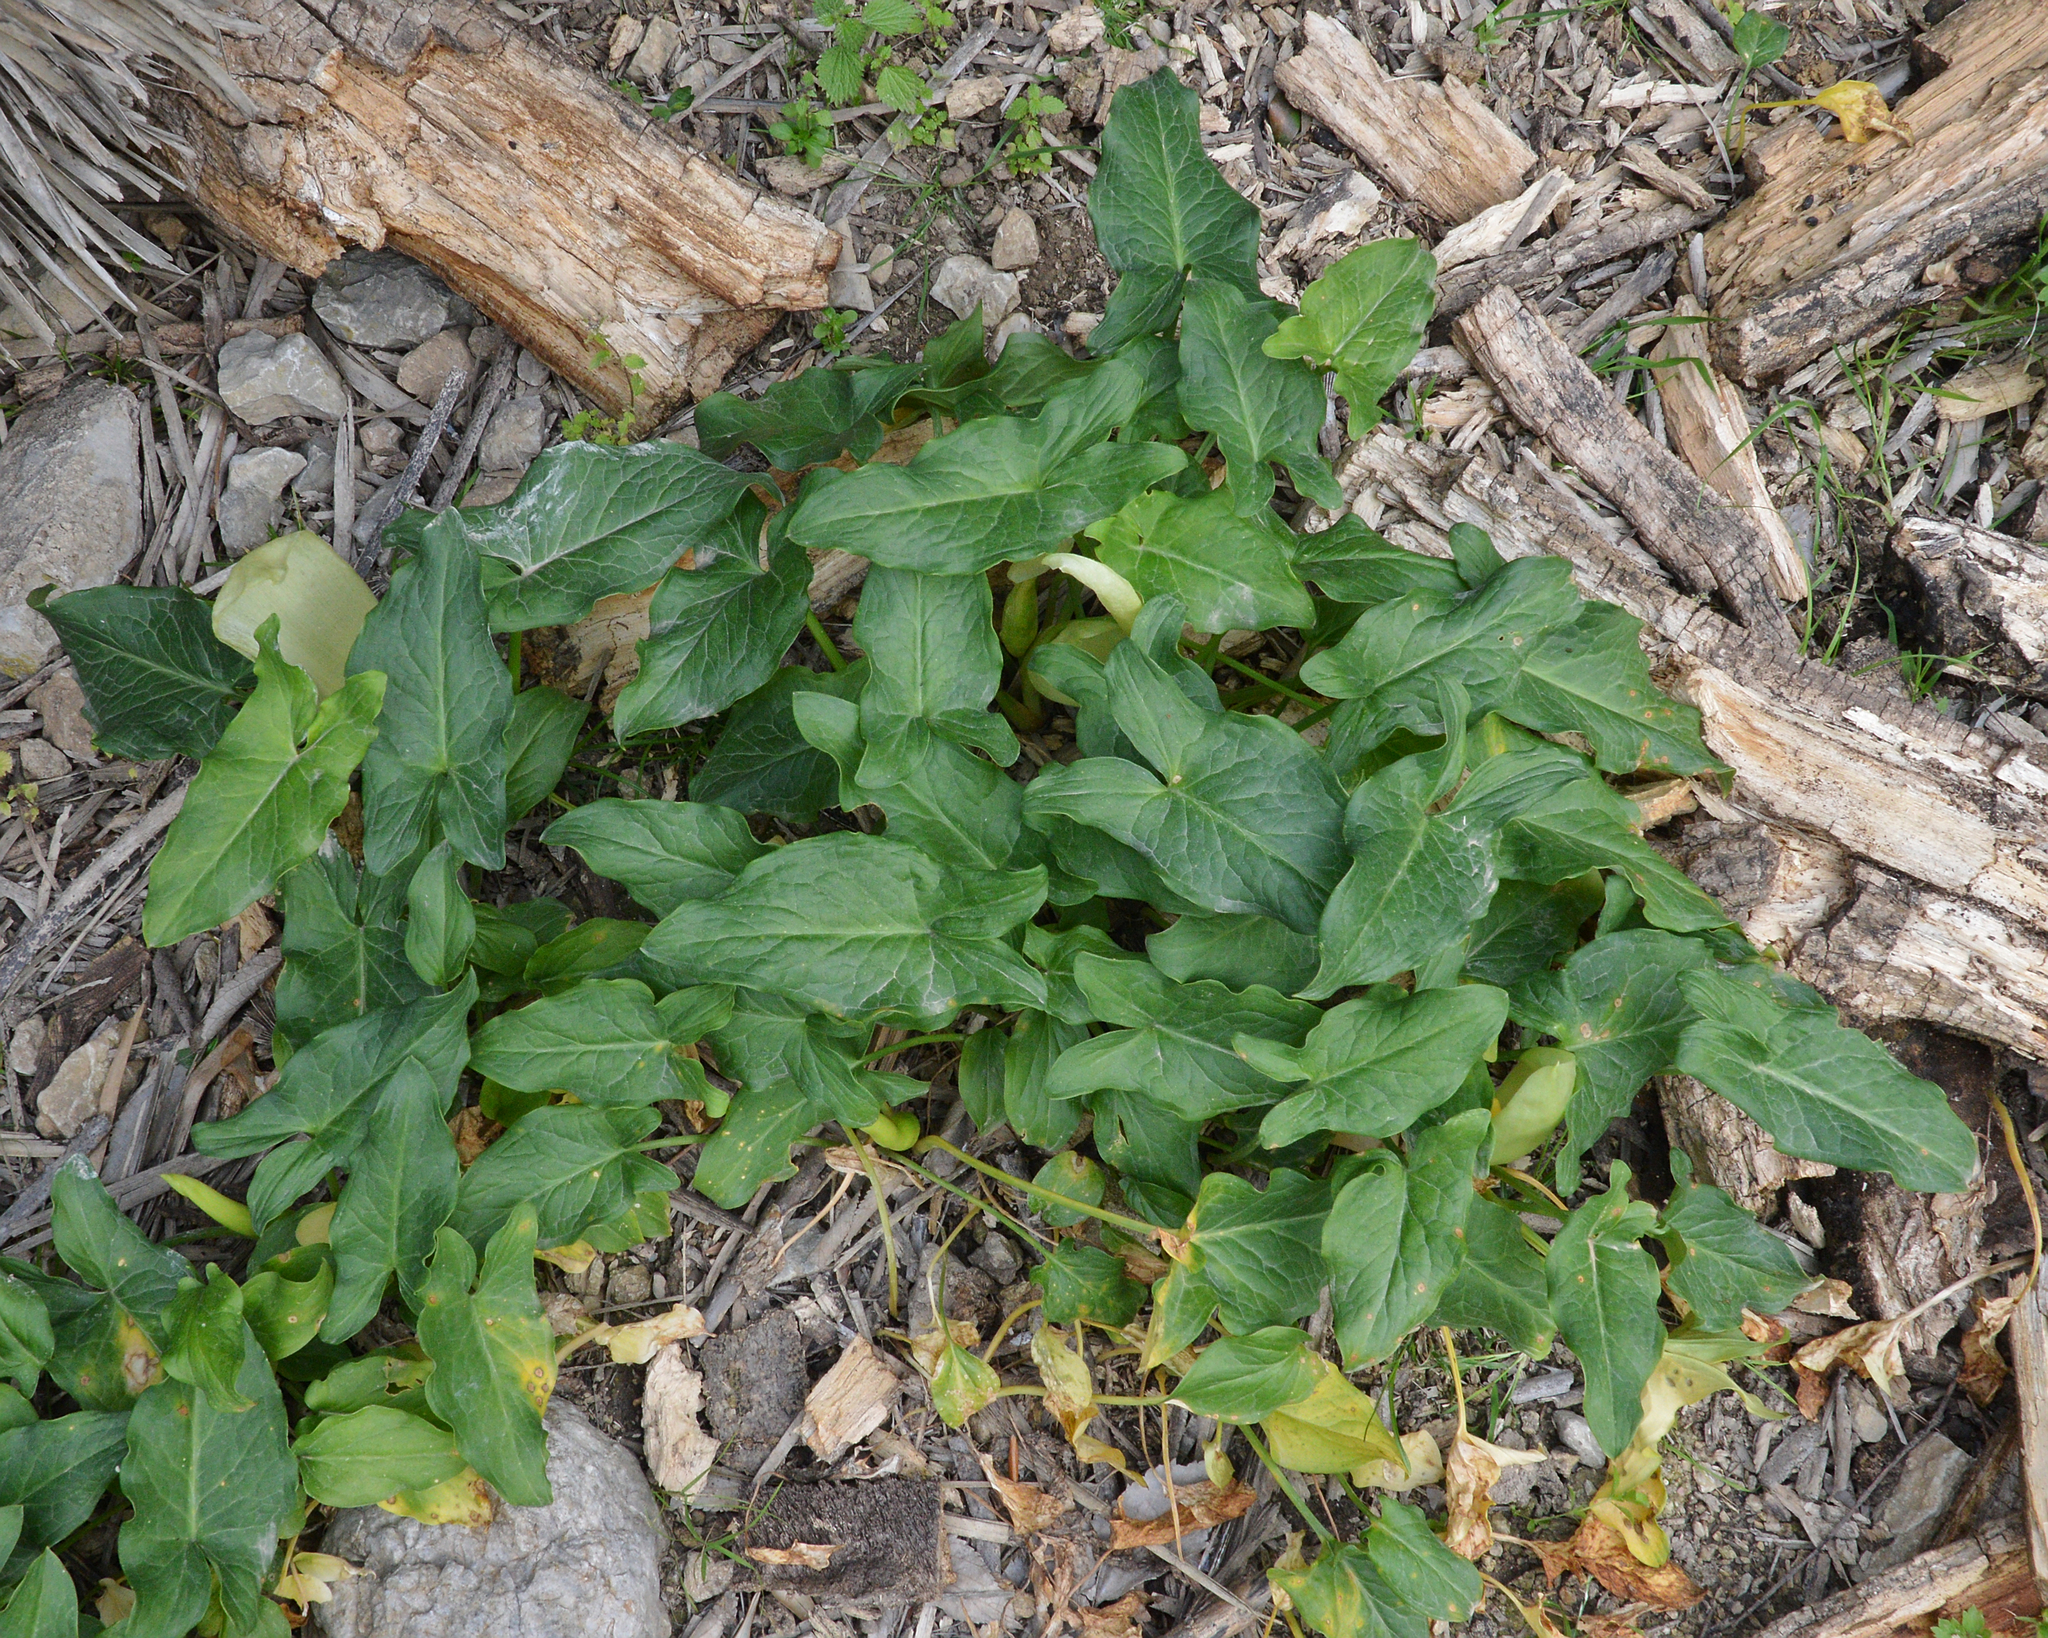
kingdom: Plantae
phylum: Tracheophyta
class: Liliopsida
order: Alismatales
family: Araceae
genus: Arum
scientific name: Arum italicum
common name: Italian lords-and-ladies
